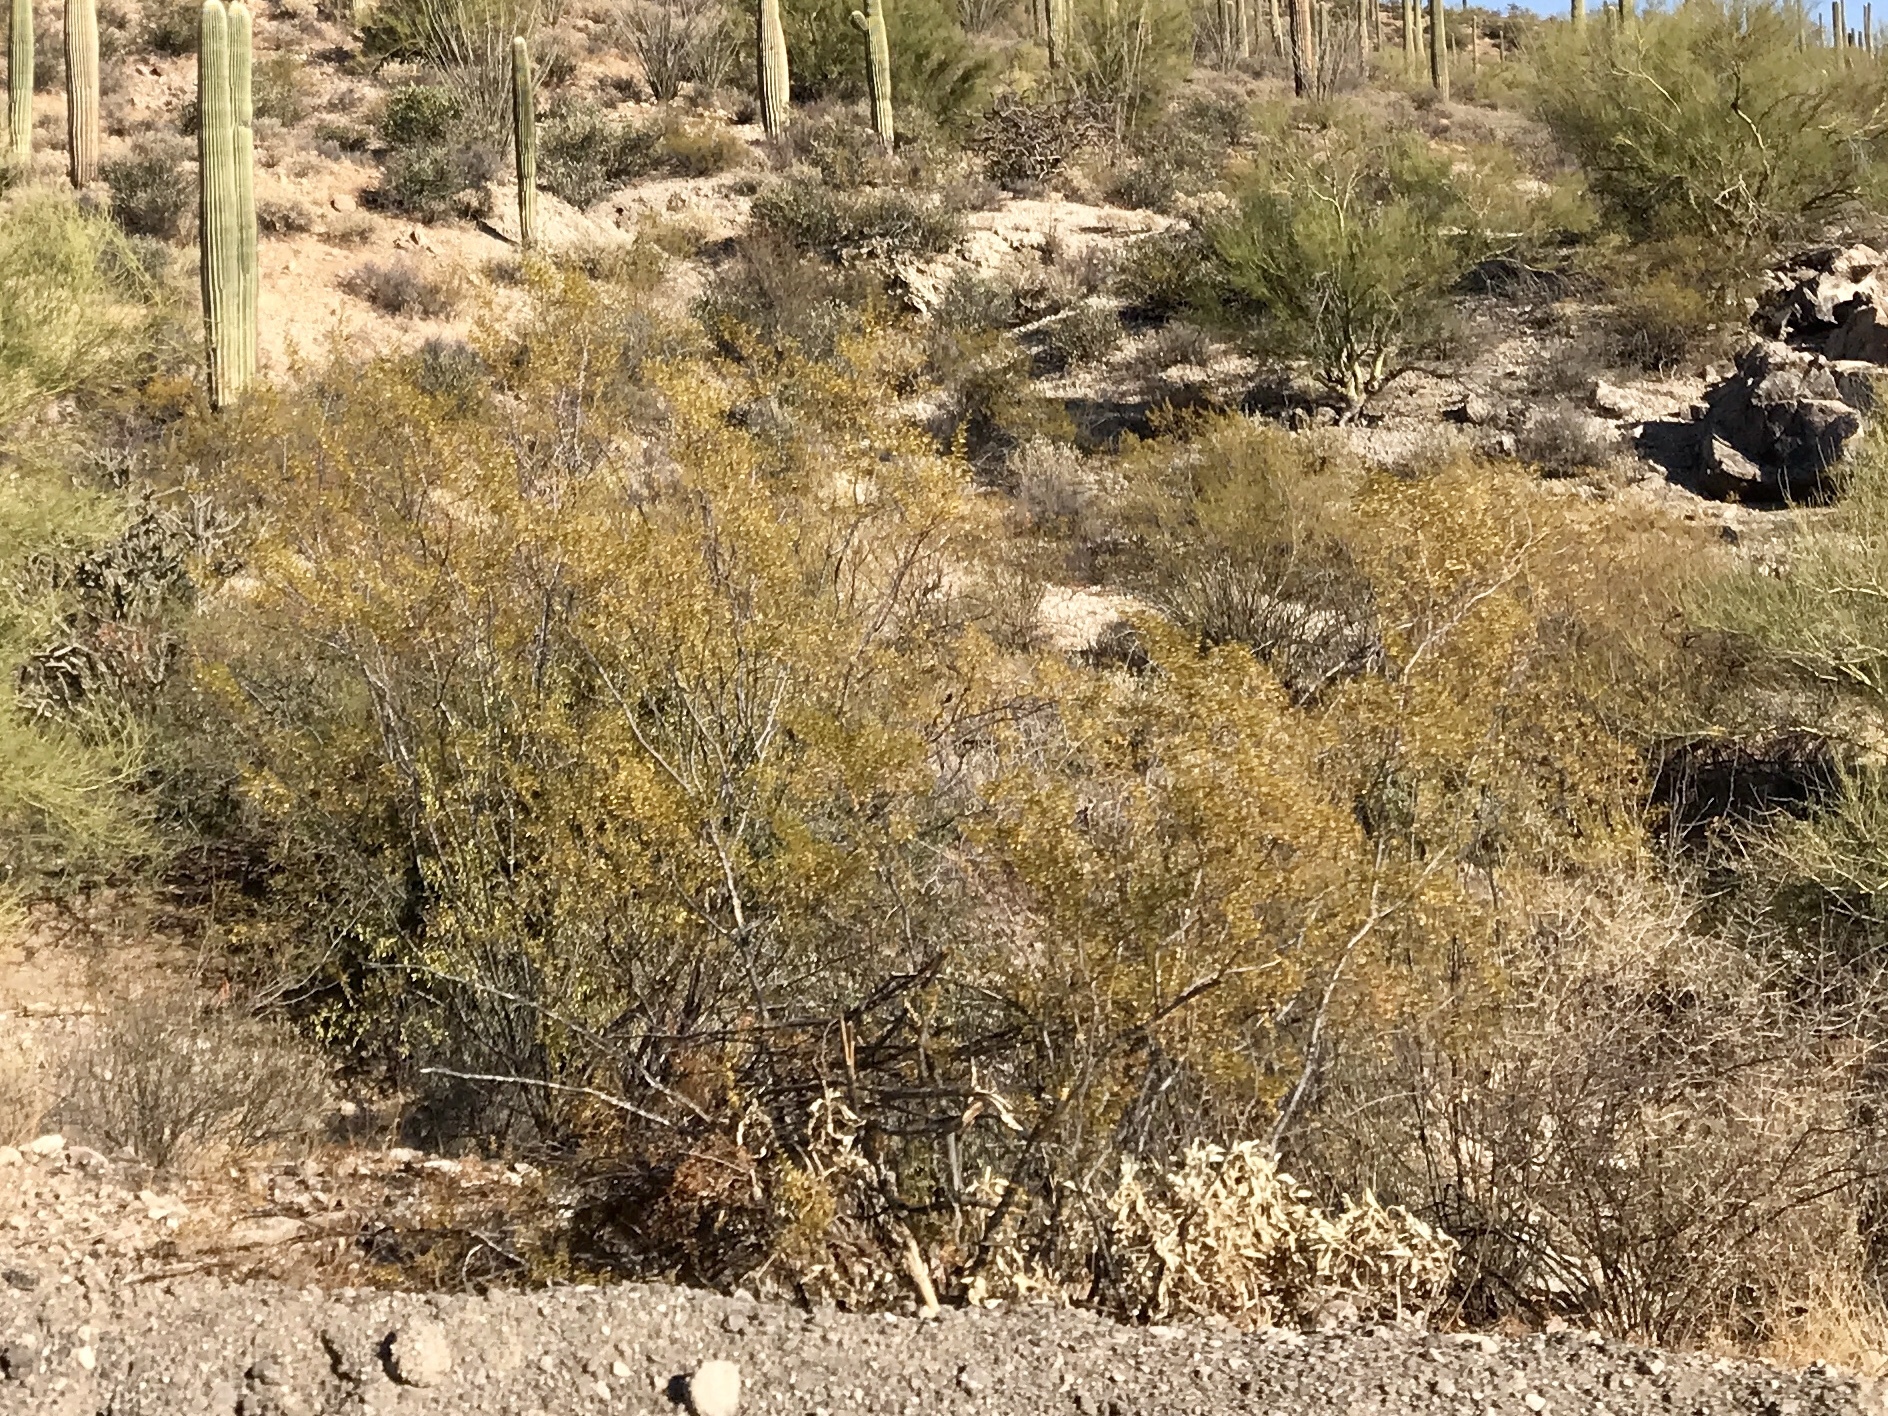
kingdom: Plantae
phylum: Tracheophyta
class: Magnoliopsida
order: Zygophyllales
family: Zygophyllaceae
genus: Larrea
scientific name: Larrea tridentata
